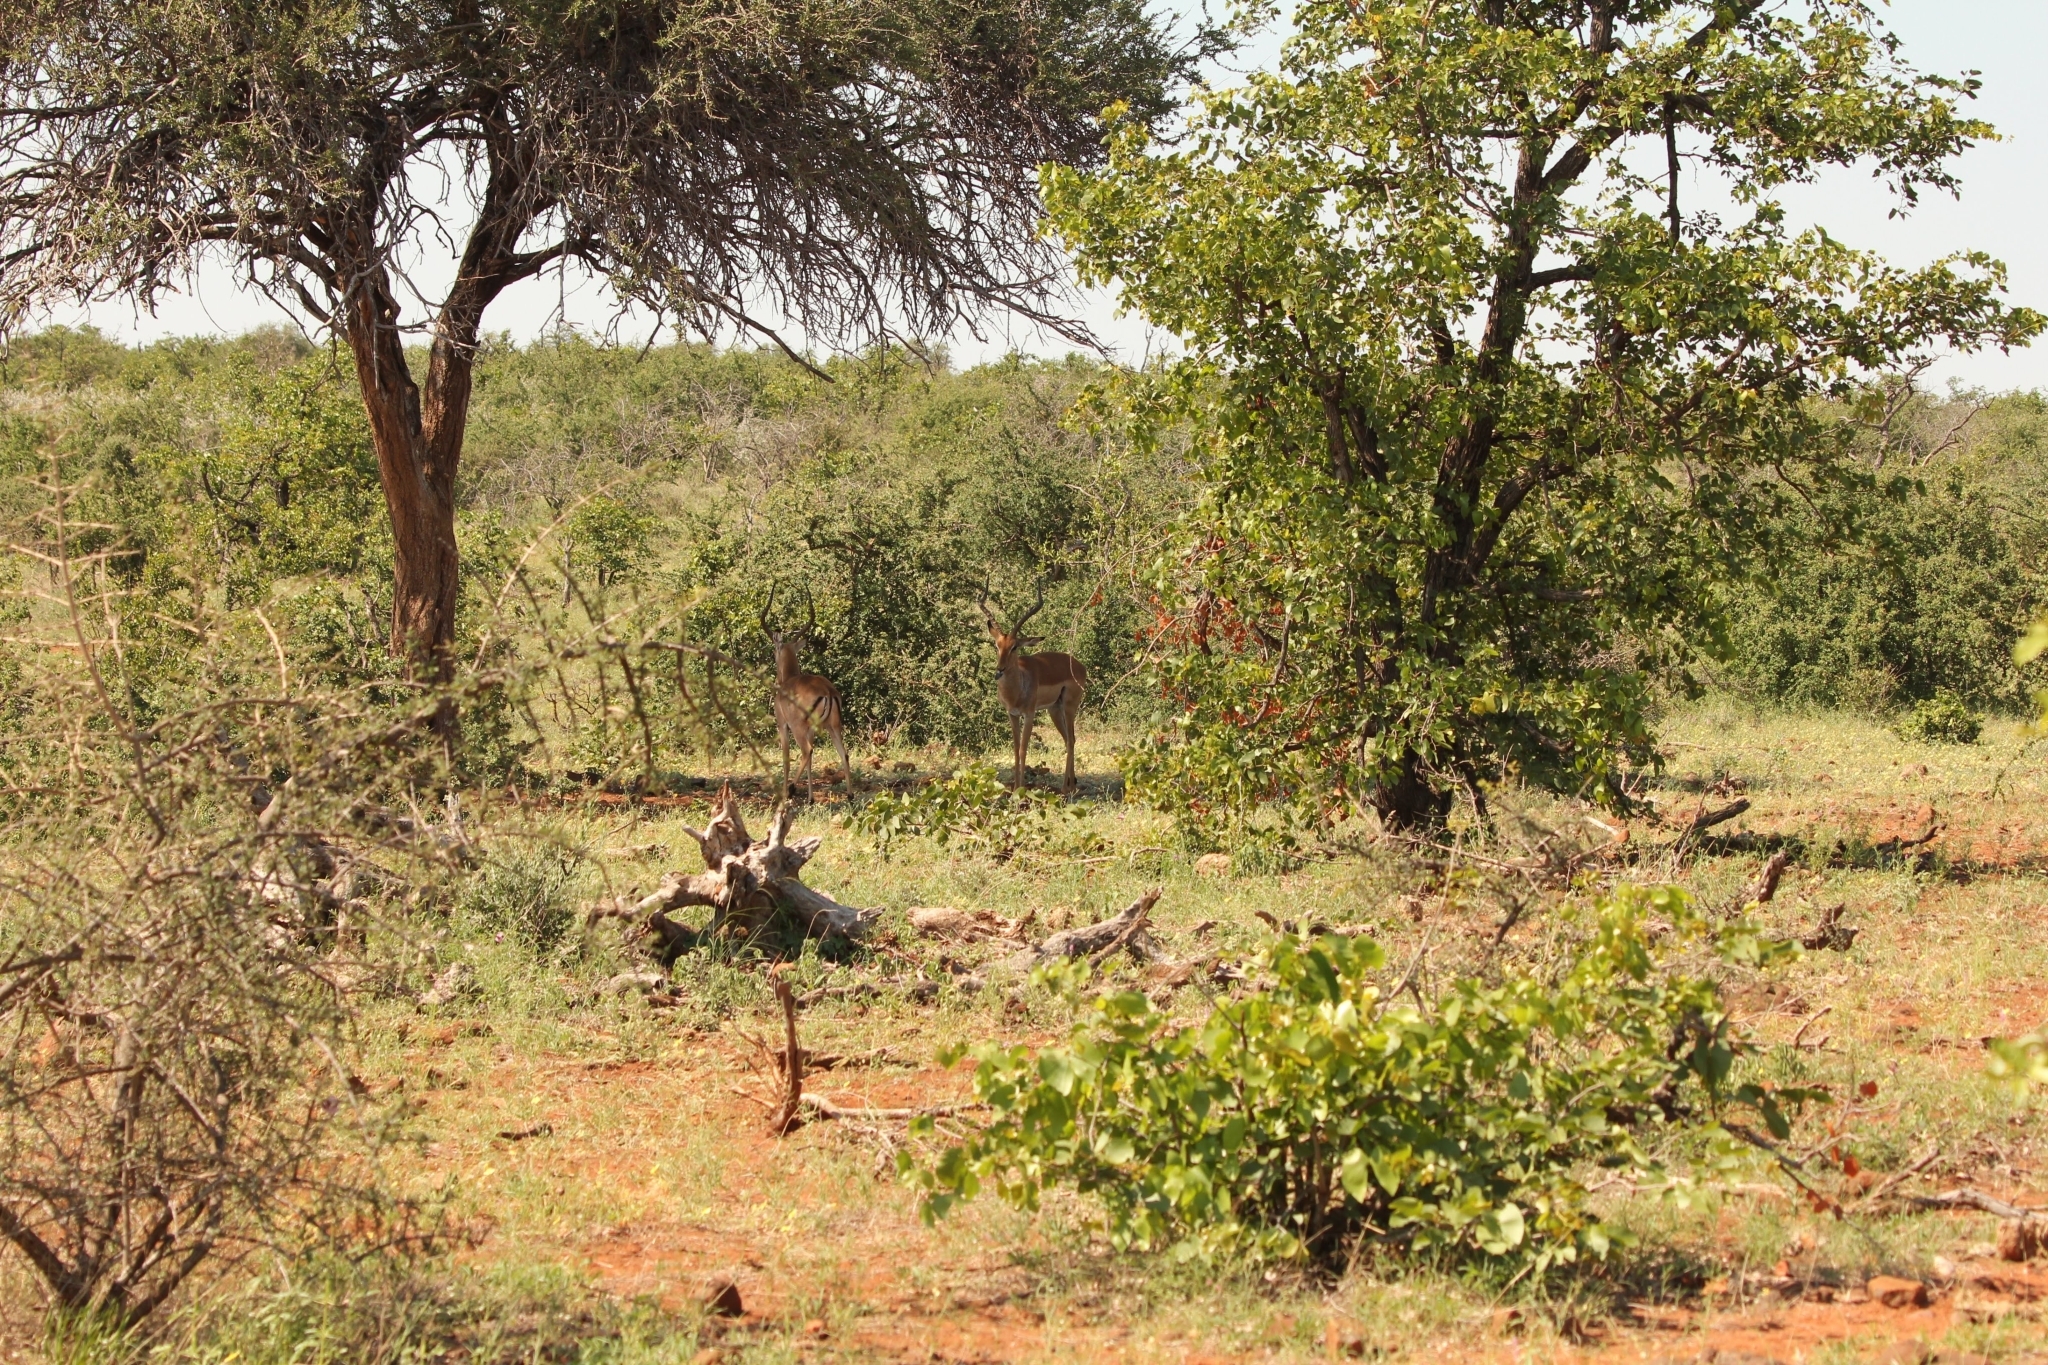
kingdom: Animalia
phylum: Chordata
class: Mammalia
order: Artiodactyla
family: Bovidae
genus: Aepyceros
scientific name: Aepyceros melampus
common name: Impala
